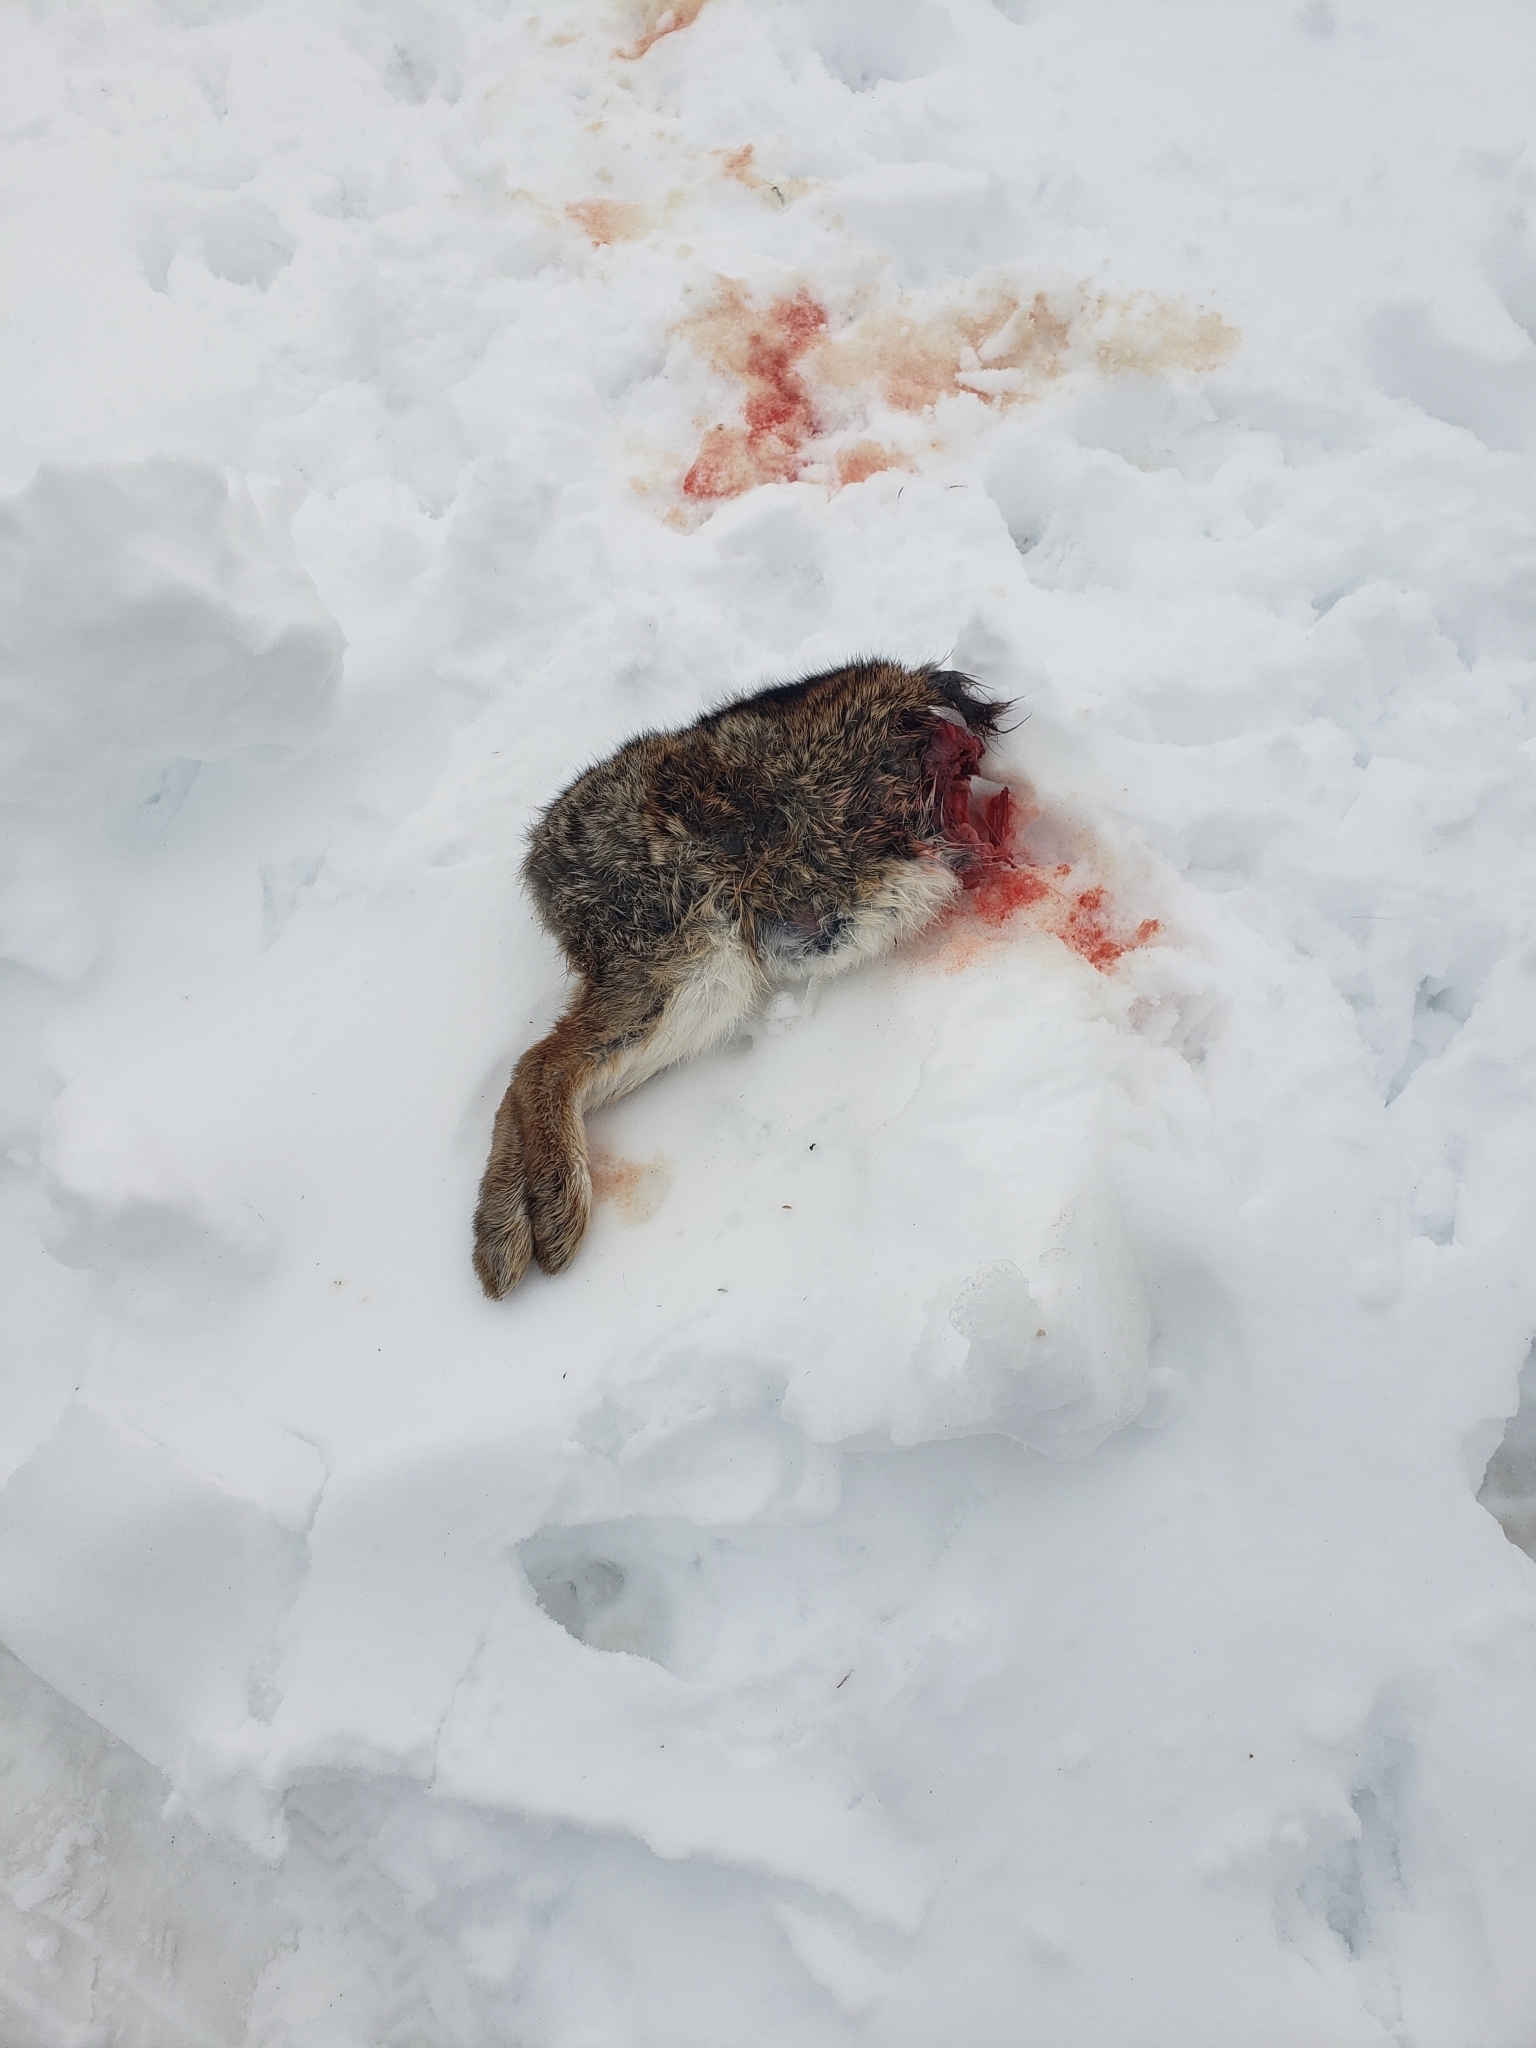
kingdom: Animalia
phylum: Chordata
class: Mammalia
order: Lagomorpha
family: Leporidae
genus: Sylvilagus
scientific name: Sylvilagus floridanus
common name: Eastern cottontail
